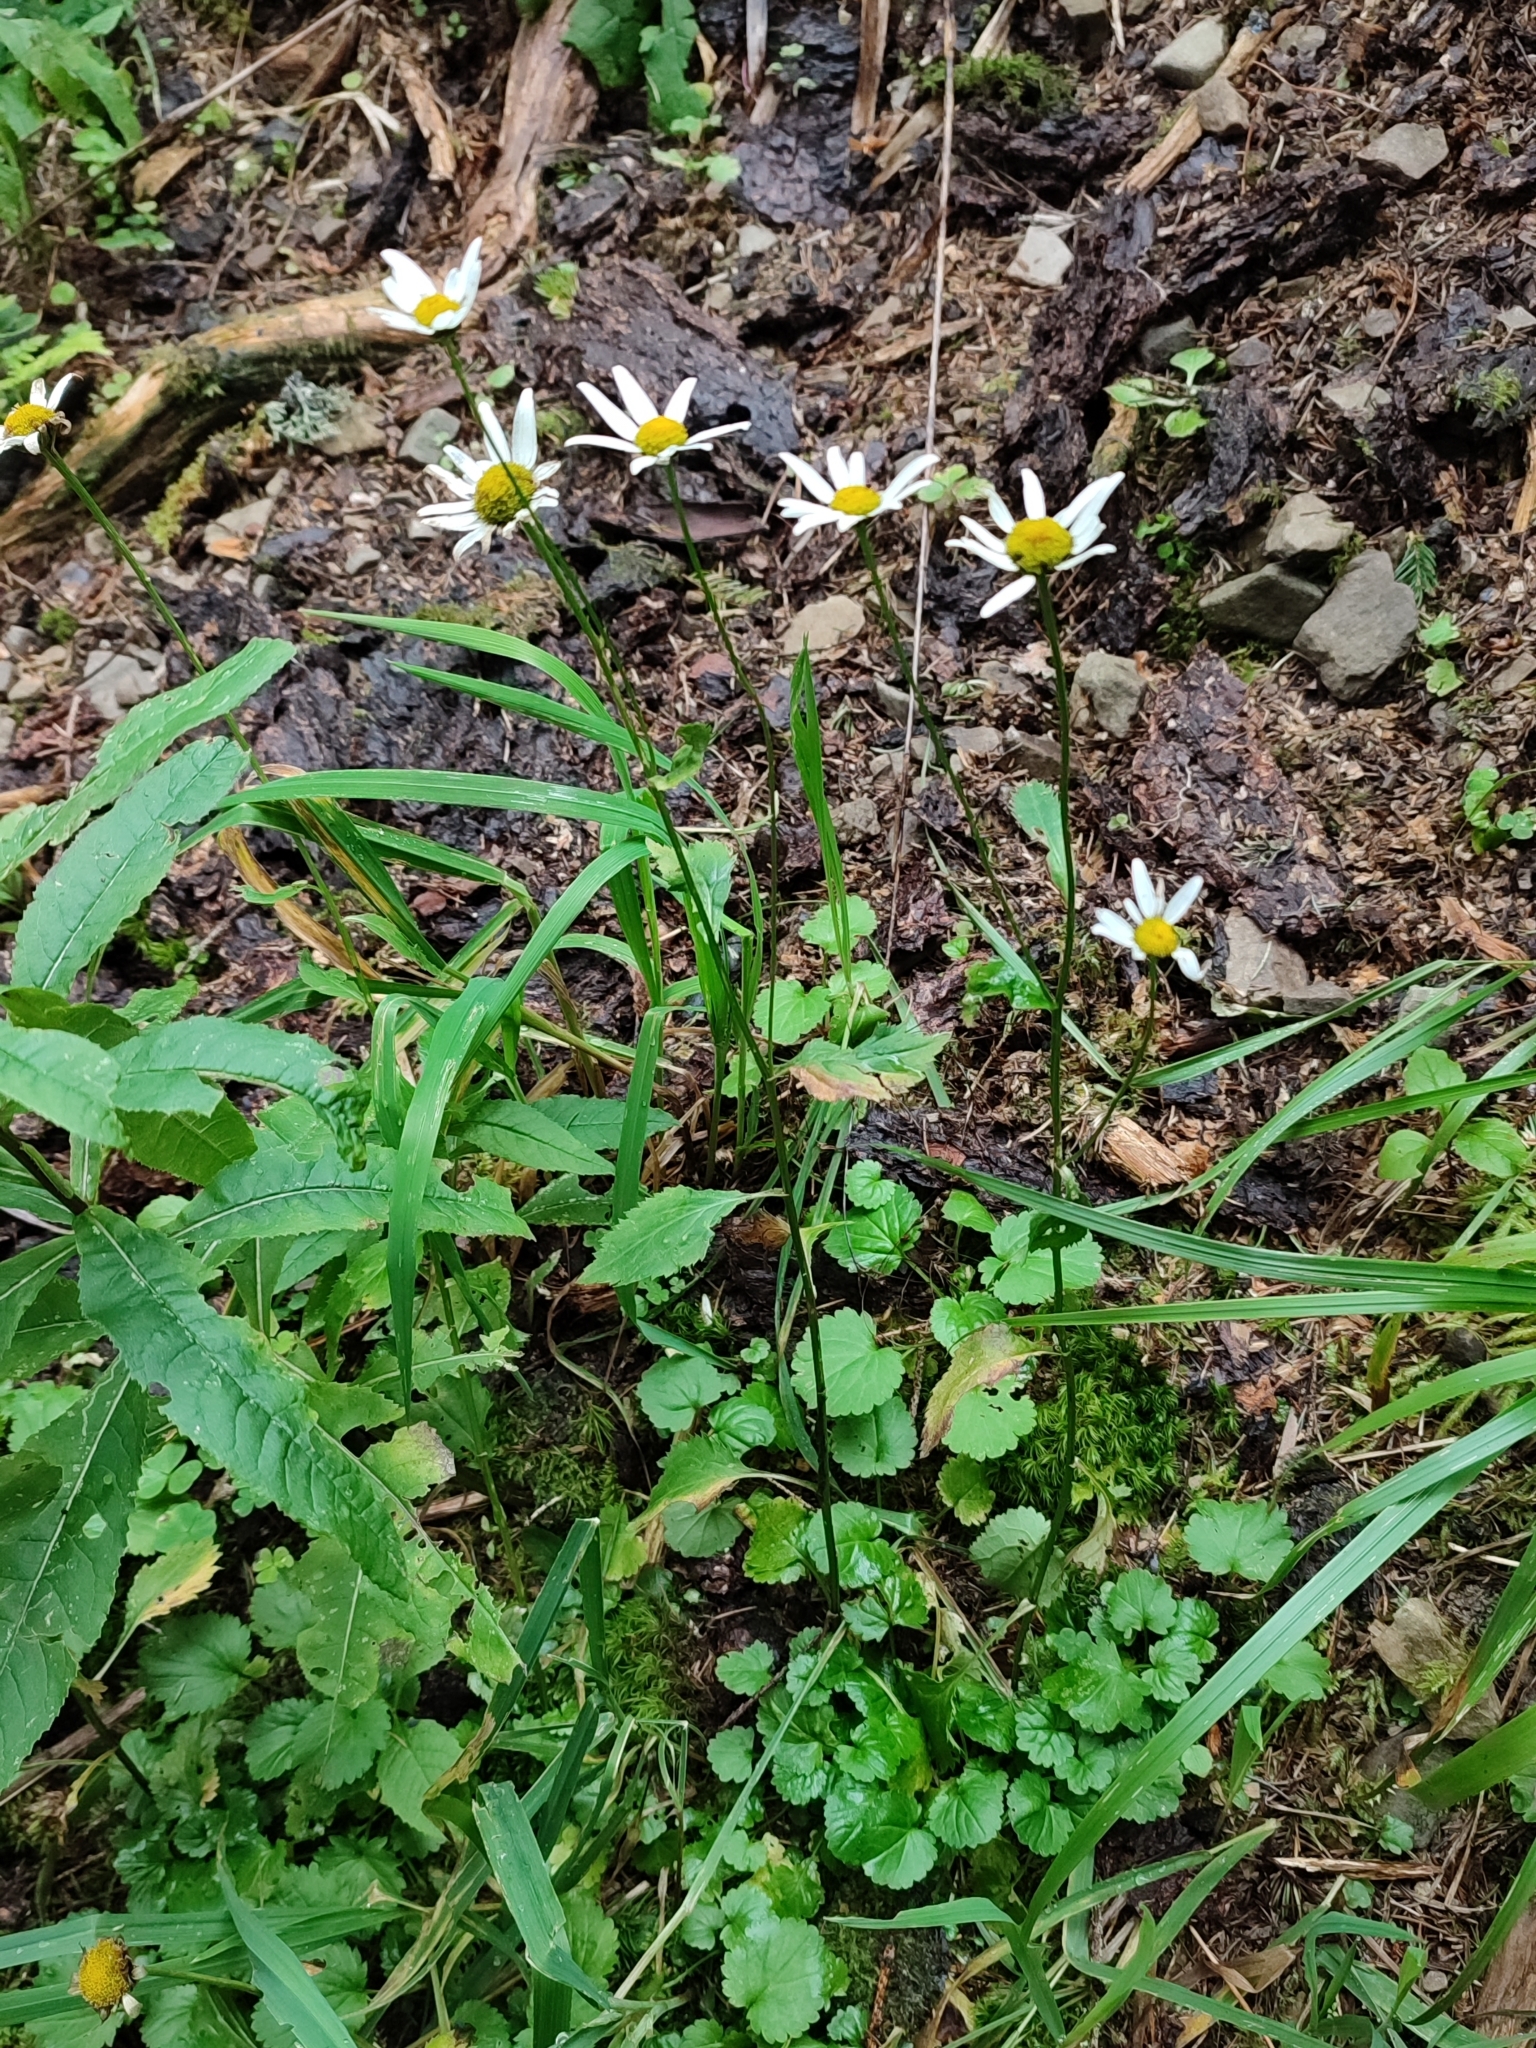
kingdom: Plantae
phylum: Tracheophyta
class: Magnoliopsida
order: Asterales
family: Asteraceae
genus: Leucanthemum
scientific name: Leucanthemum rotundifolium
